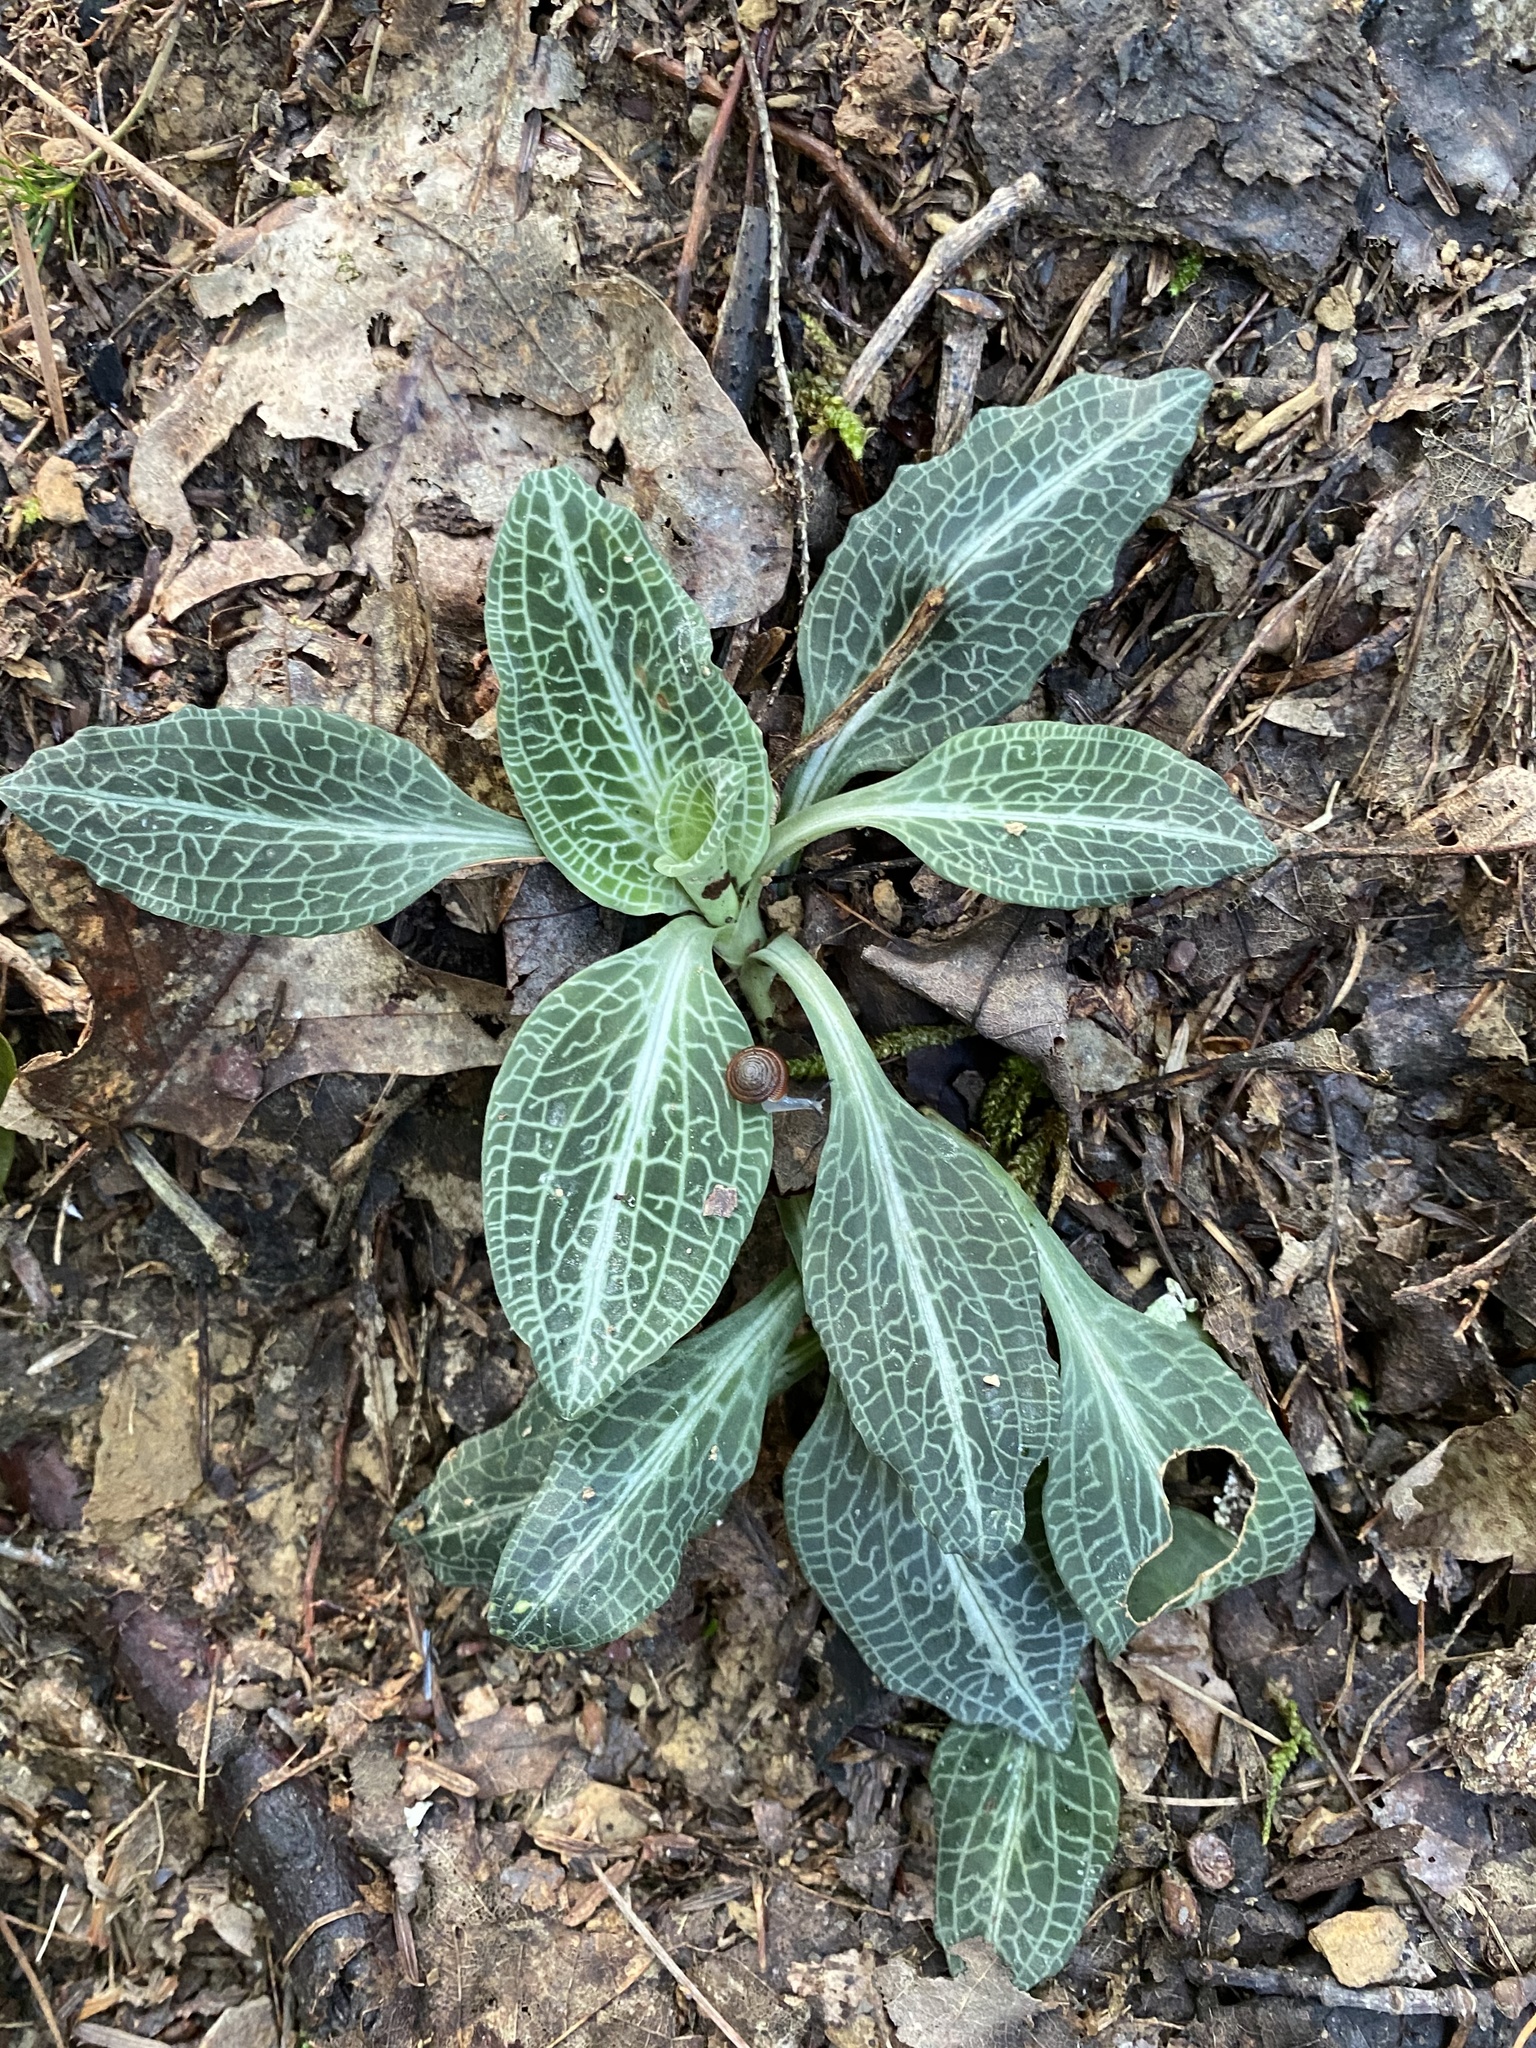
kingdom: Plantae
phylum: Tracheophyta
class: Liliopsida
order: Asparagales
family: Orchidaceae
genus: Goodyera
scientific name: Goodyera pubescens
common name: Downy rattlesnake-plantain
